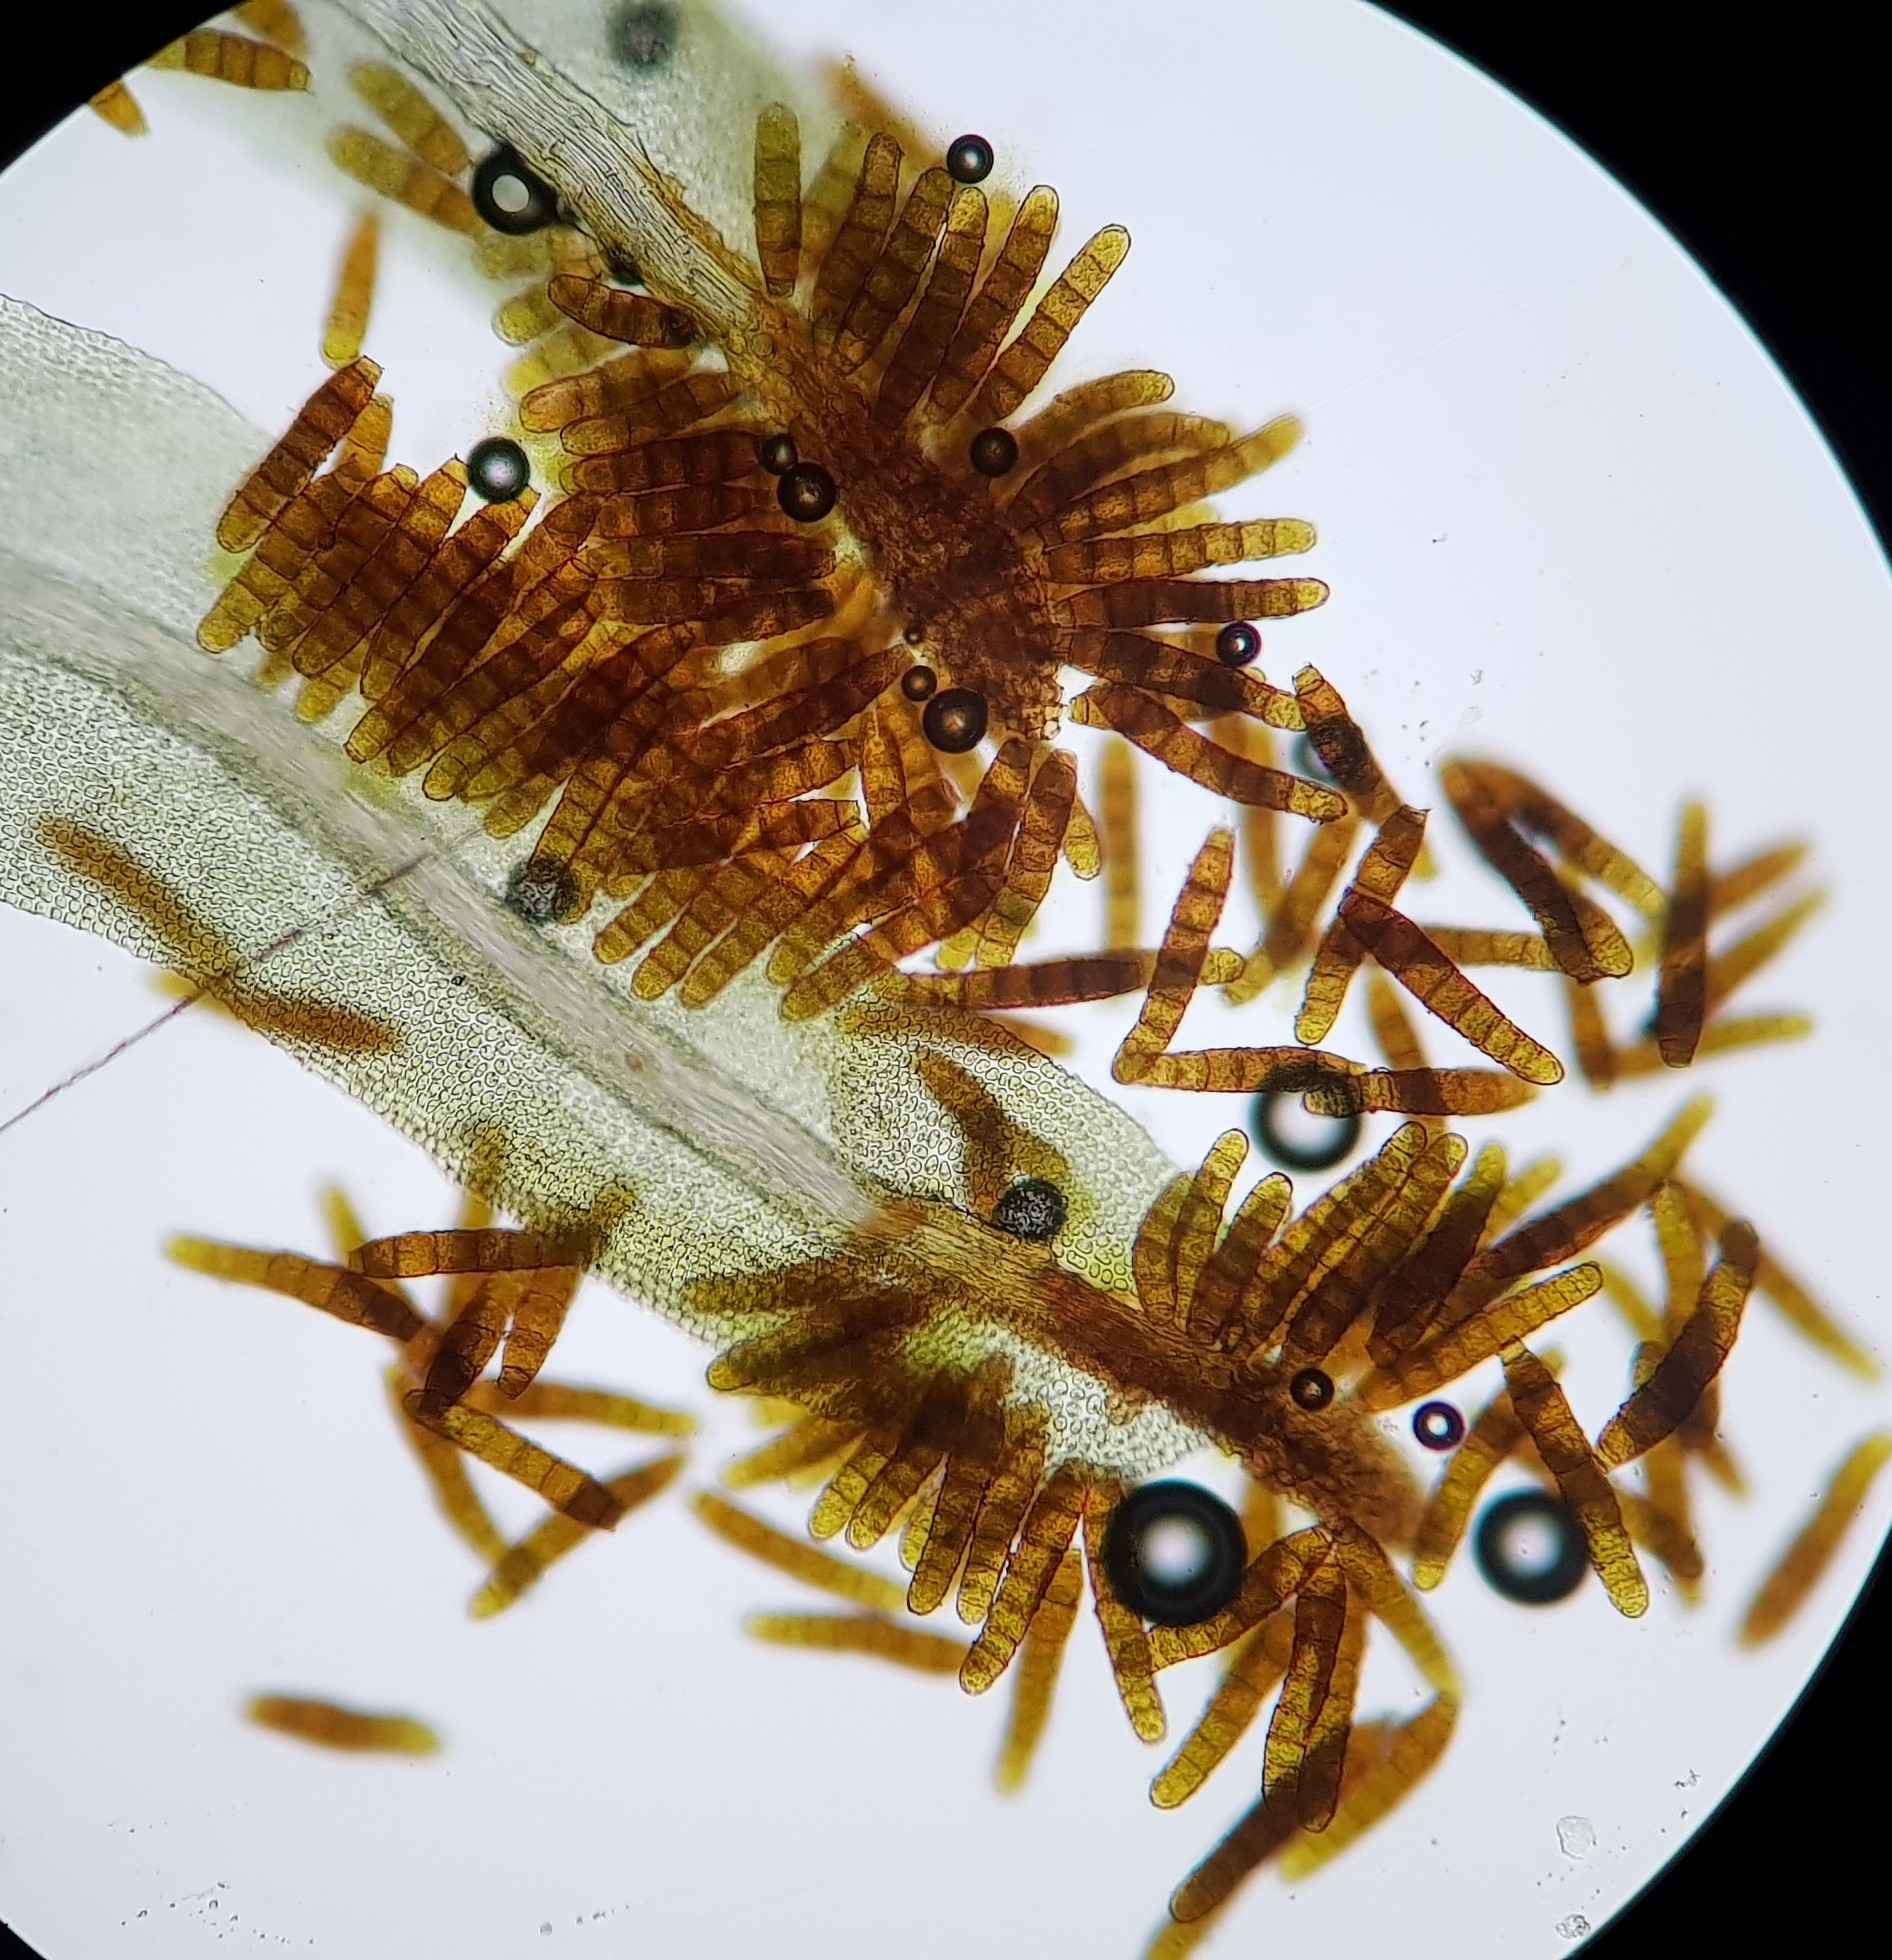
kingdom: Plantae
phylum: Bryophyta
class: Bryopsida
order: Orthotrichales
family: Orthotrichaceae
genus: Plenogemma
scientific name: Plenogemma phyllantha
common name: Frizzled pincushion
